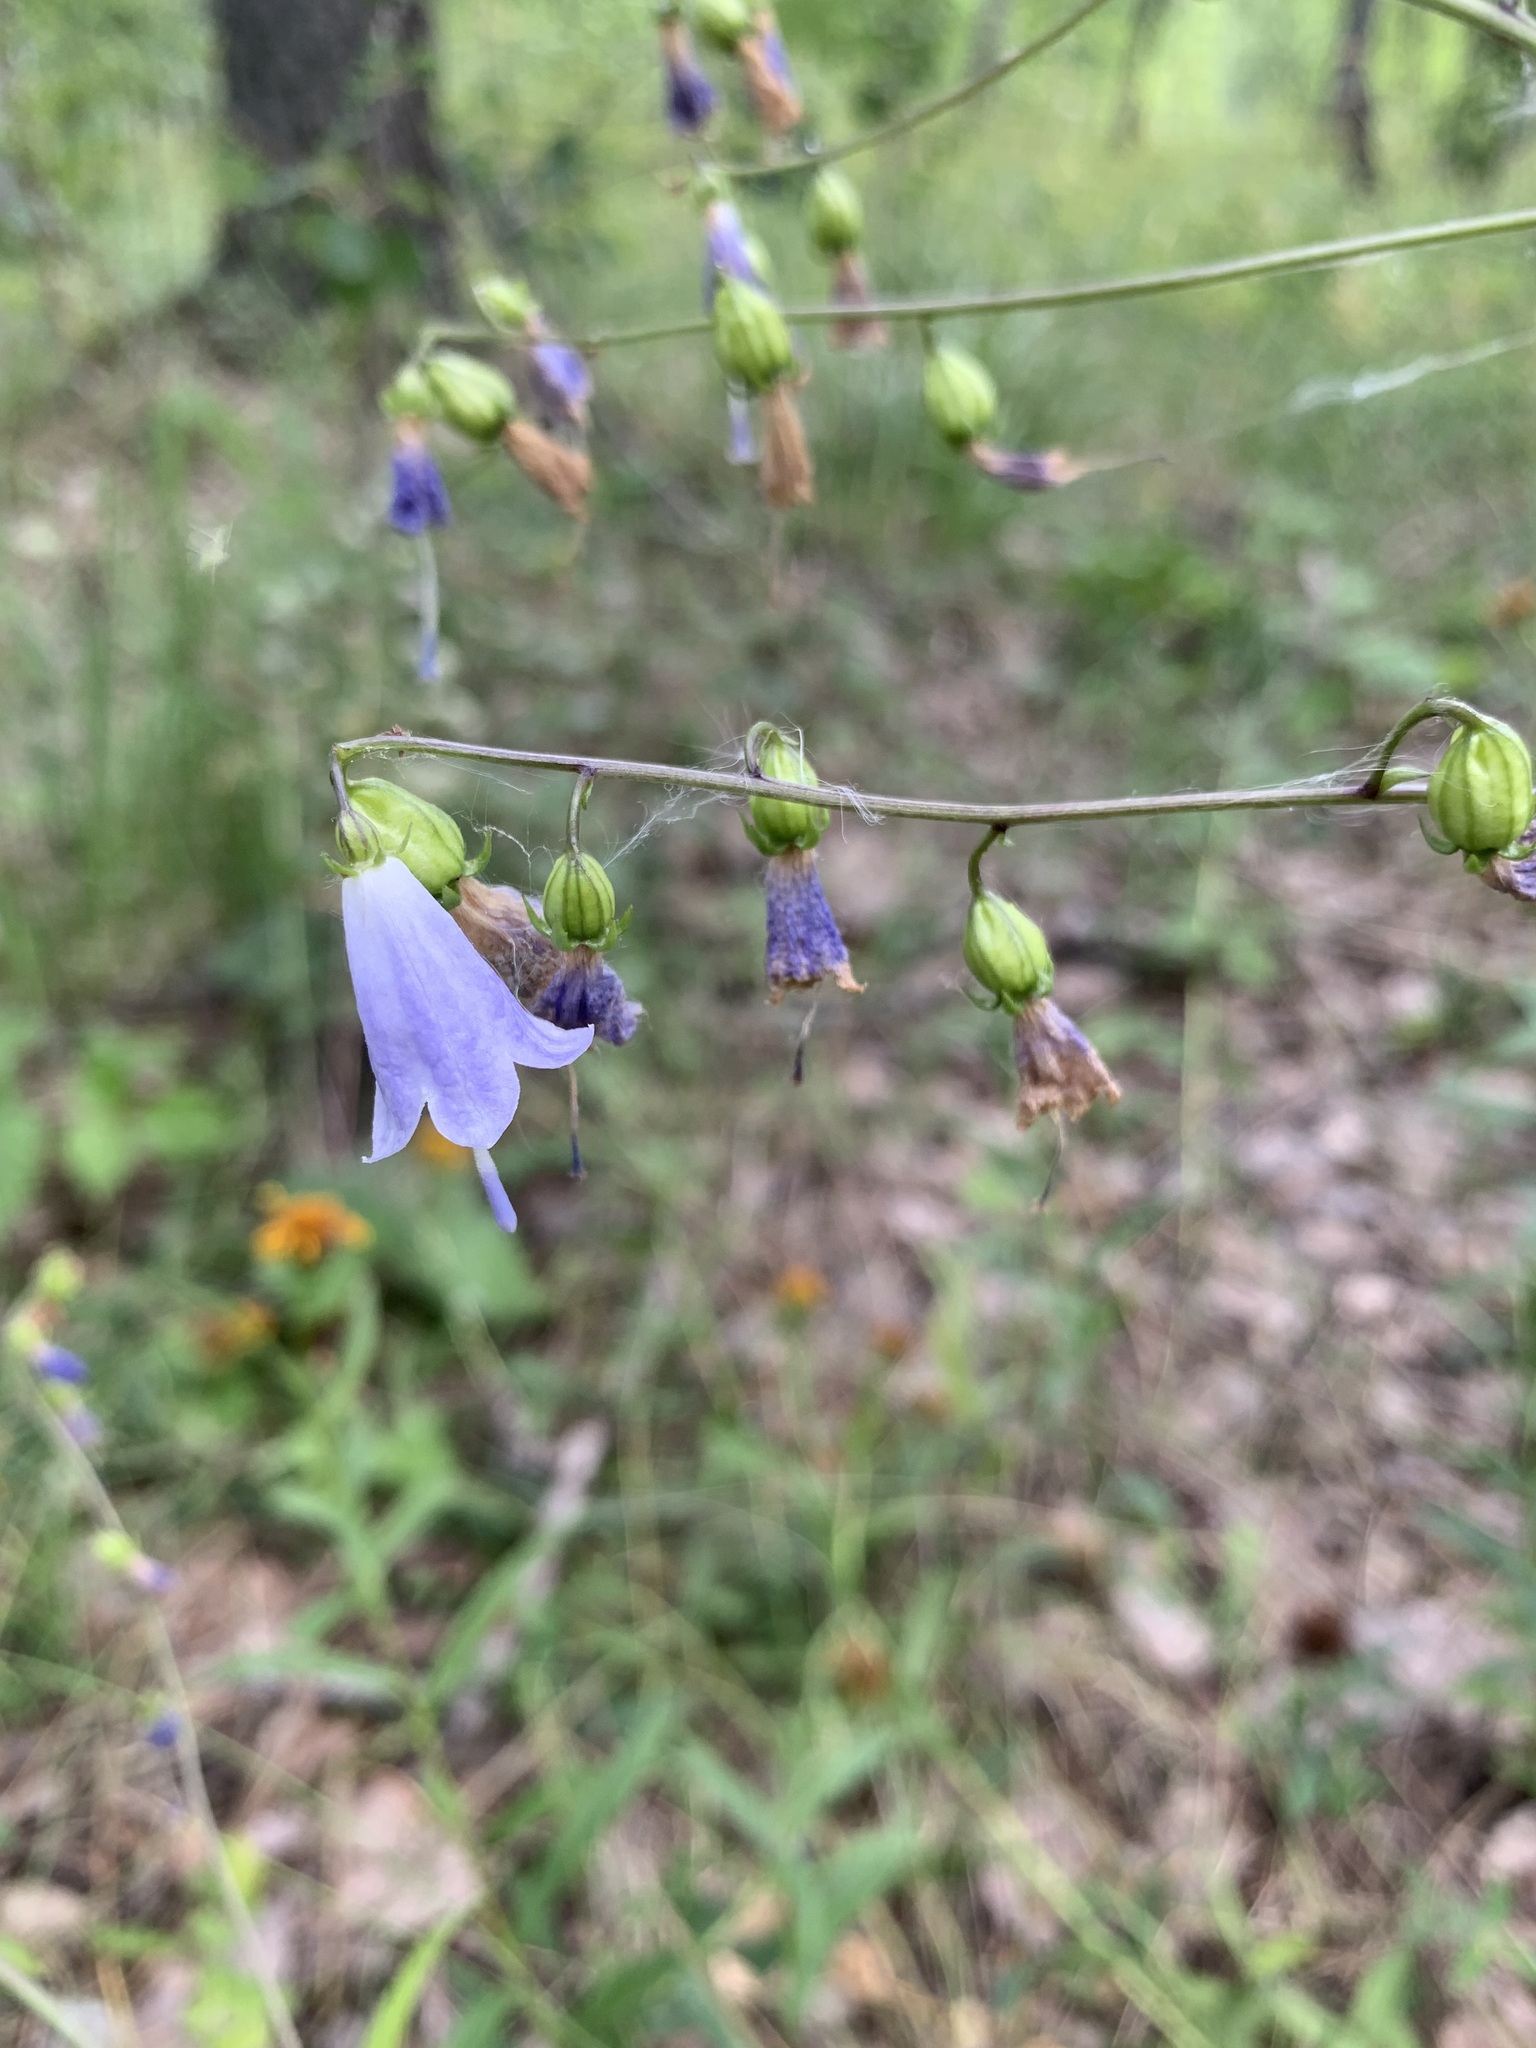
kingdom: Plantae
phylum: Tracheophyta
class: Magnoliopsida
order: Asterales
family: Campanulaceae
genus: Adenophora
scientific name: Adenophora liliifolia
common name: Lilyleaf ladybells
